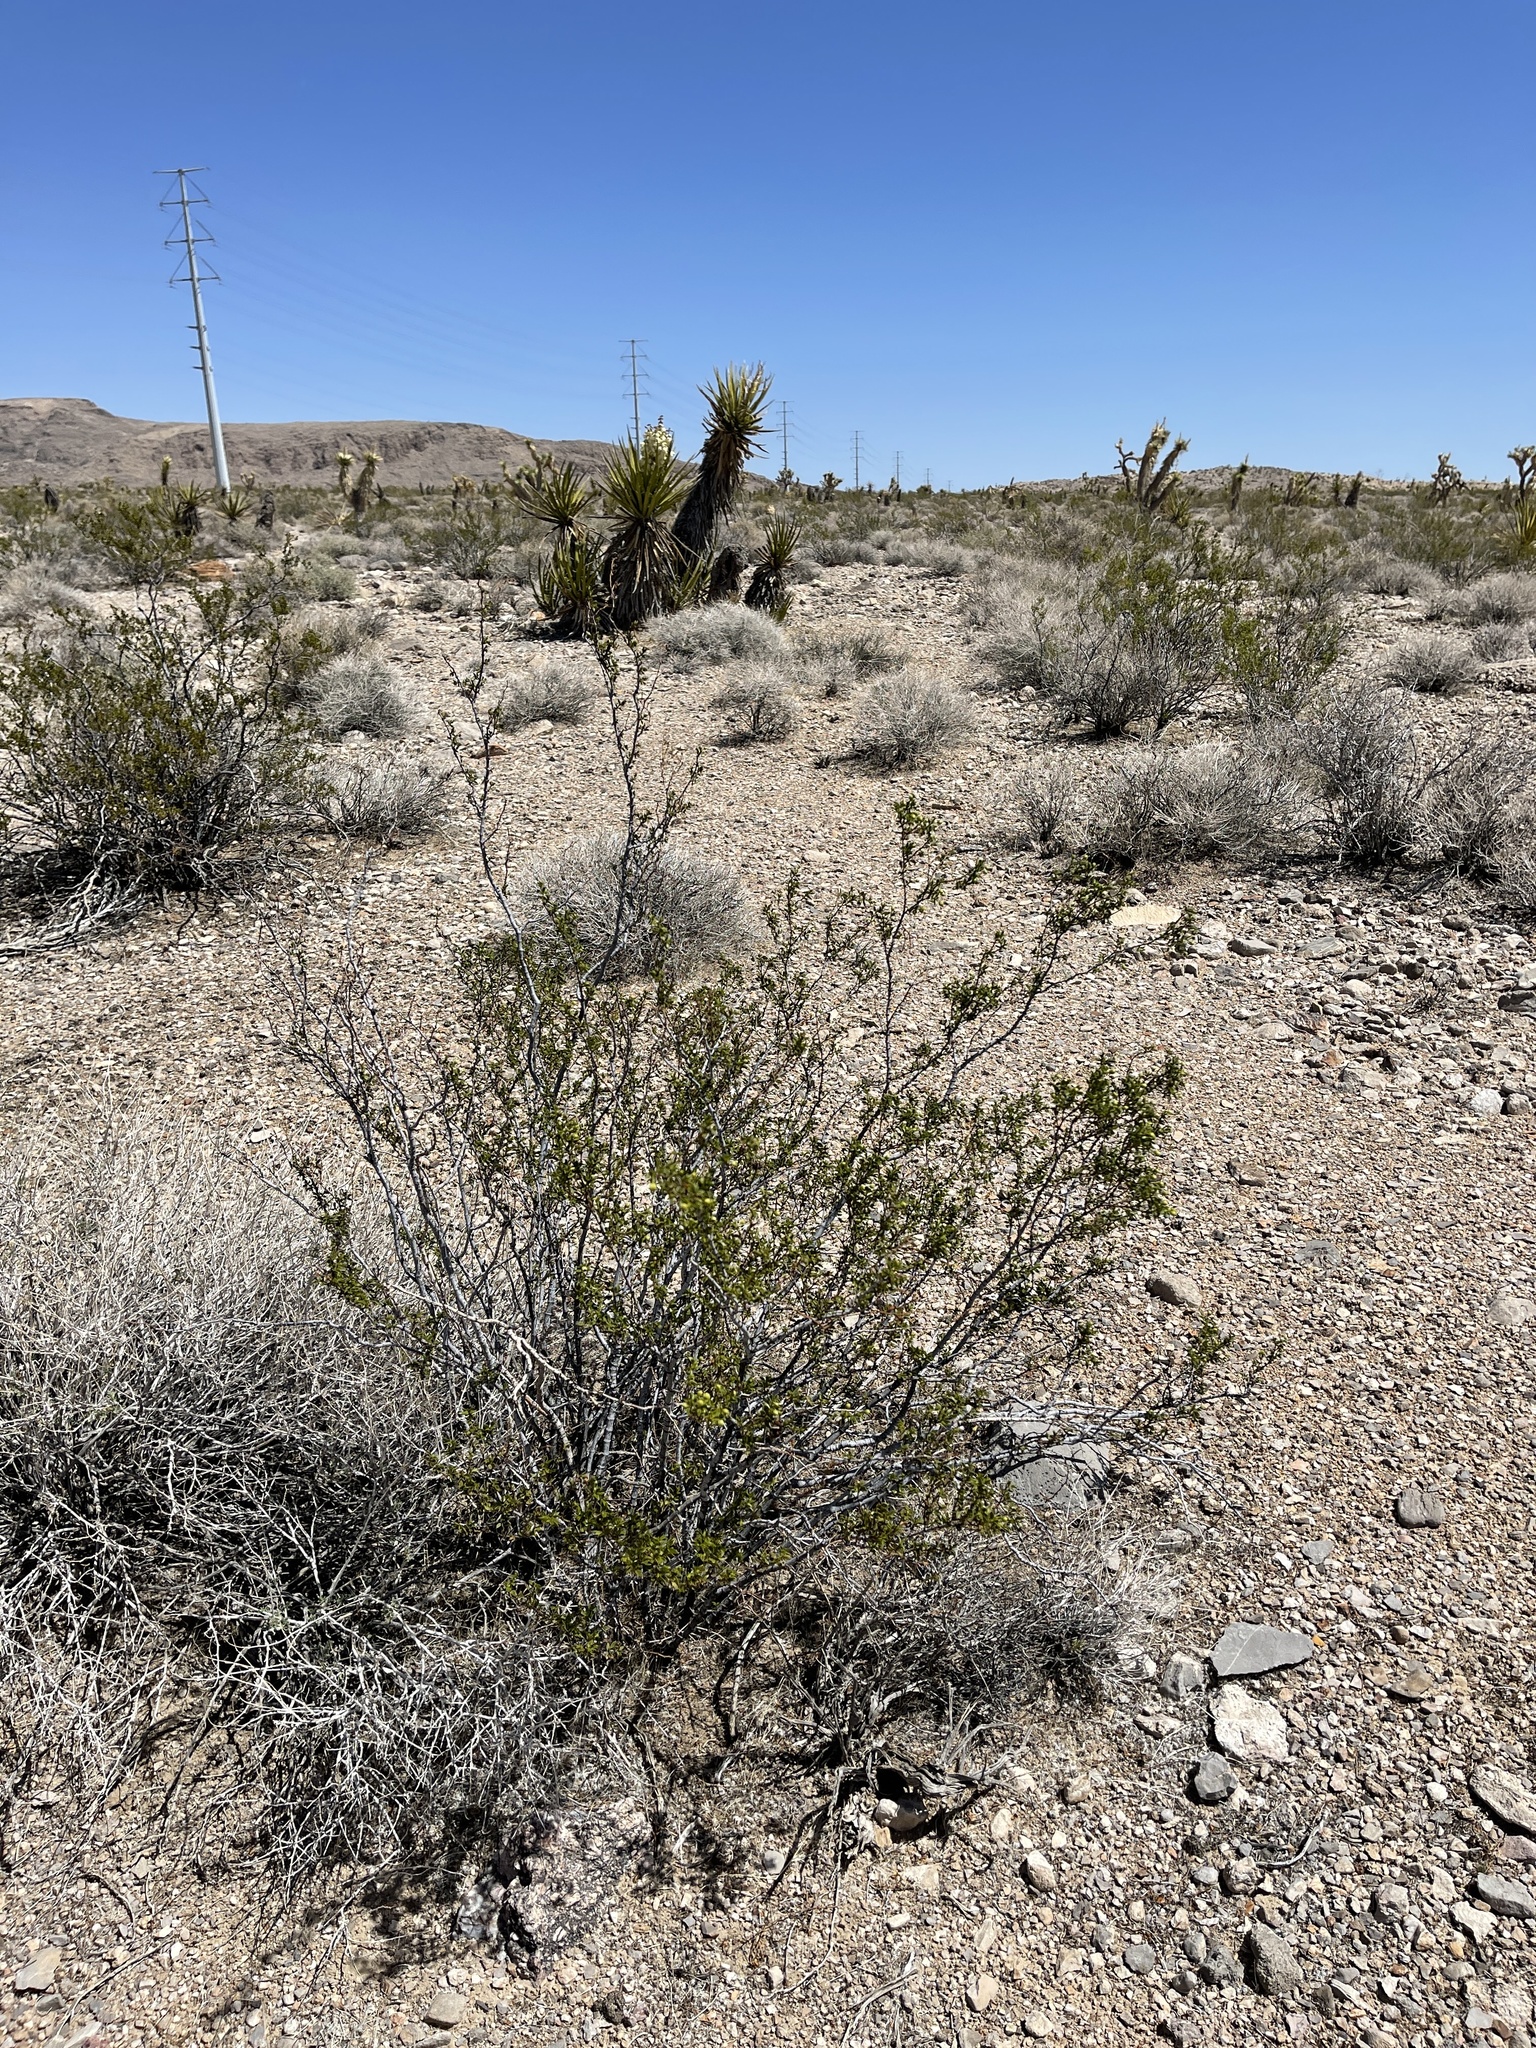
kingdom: Plantae
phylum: Tracheophyta
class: Magnoliopsida
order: Zygophyllales
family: Zygophyllaceae
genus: Larrea
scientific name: Larrea tridentata
